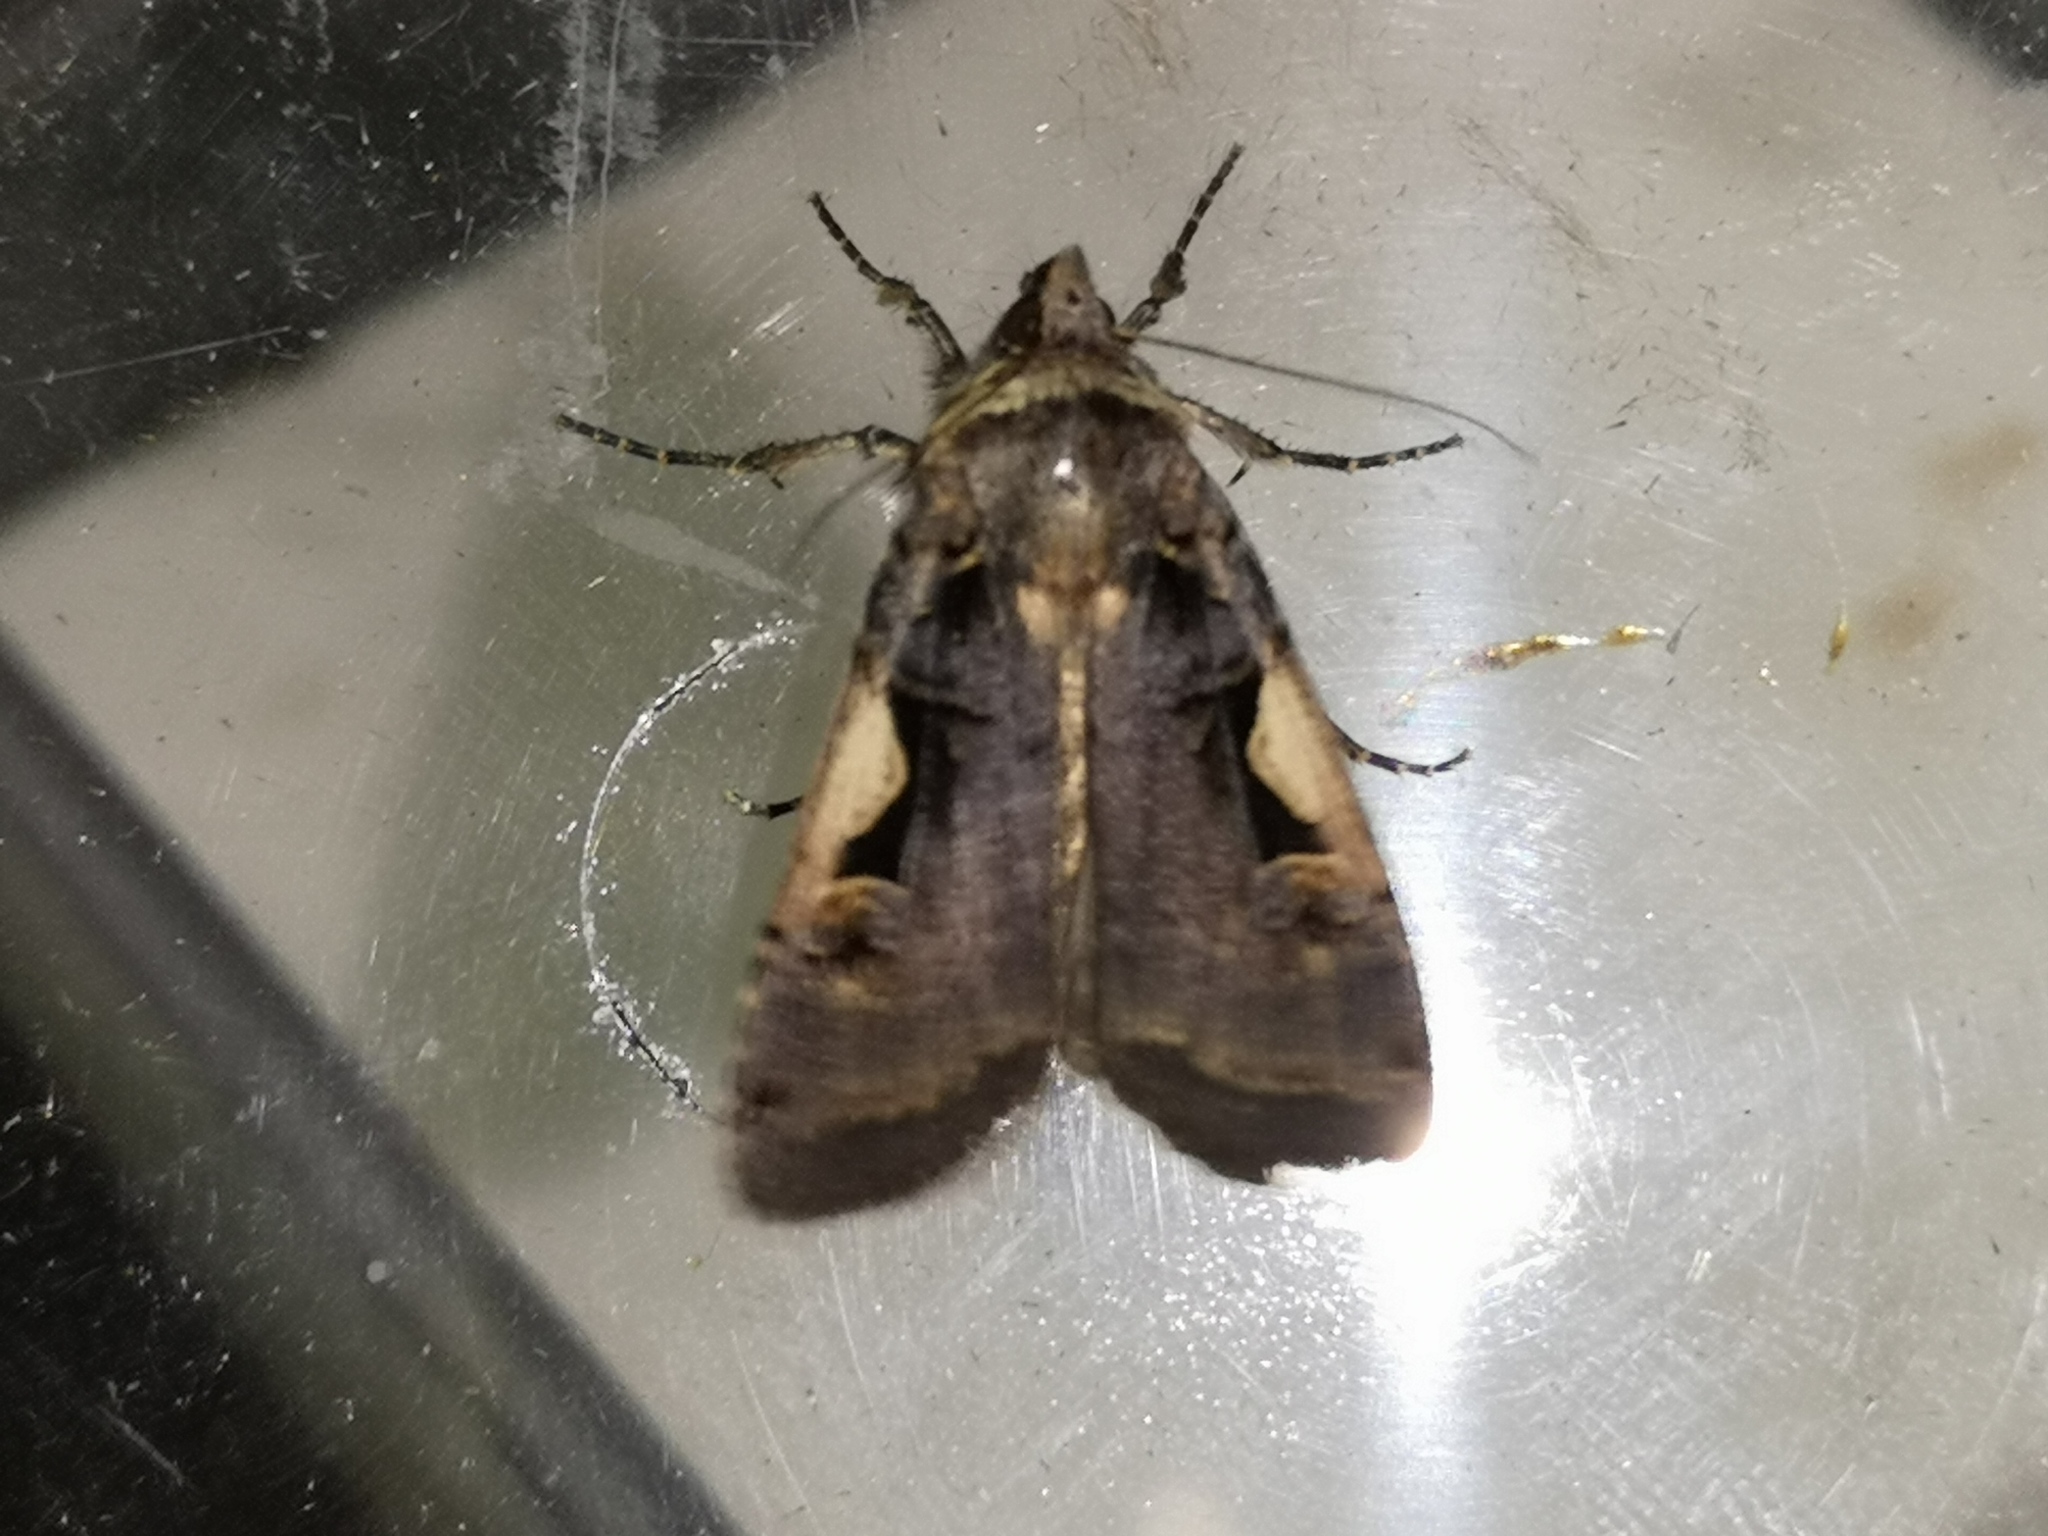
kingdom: Animalia
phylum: Arthropoda
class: Insecta
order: Lepidoptera
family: Noctuidae
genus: Xestia
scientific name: Xestia c-nigrum
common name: Setaceous hebrew character
